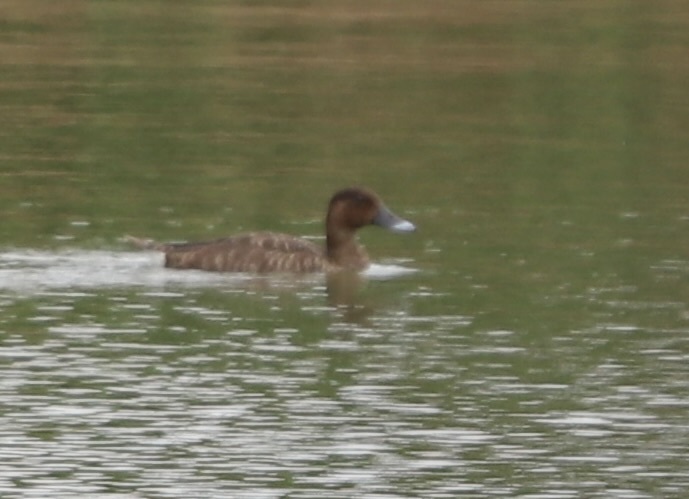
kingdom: Animalia
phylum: Chordata
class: Aves
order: Anseriformes
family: Anatidae
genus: Aythya
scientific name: Aythya australis
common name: Hardhead
